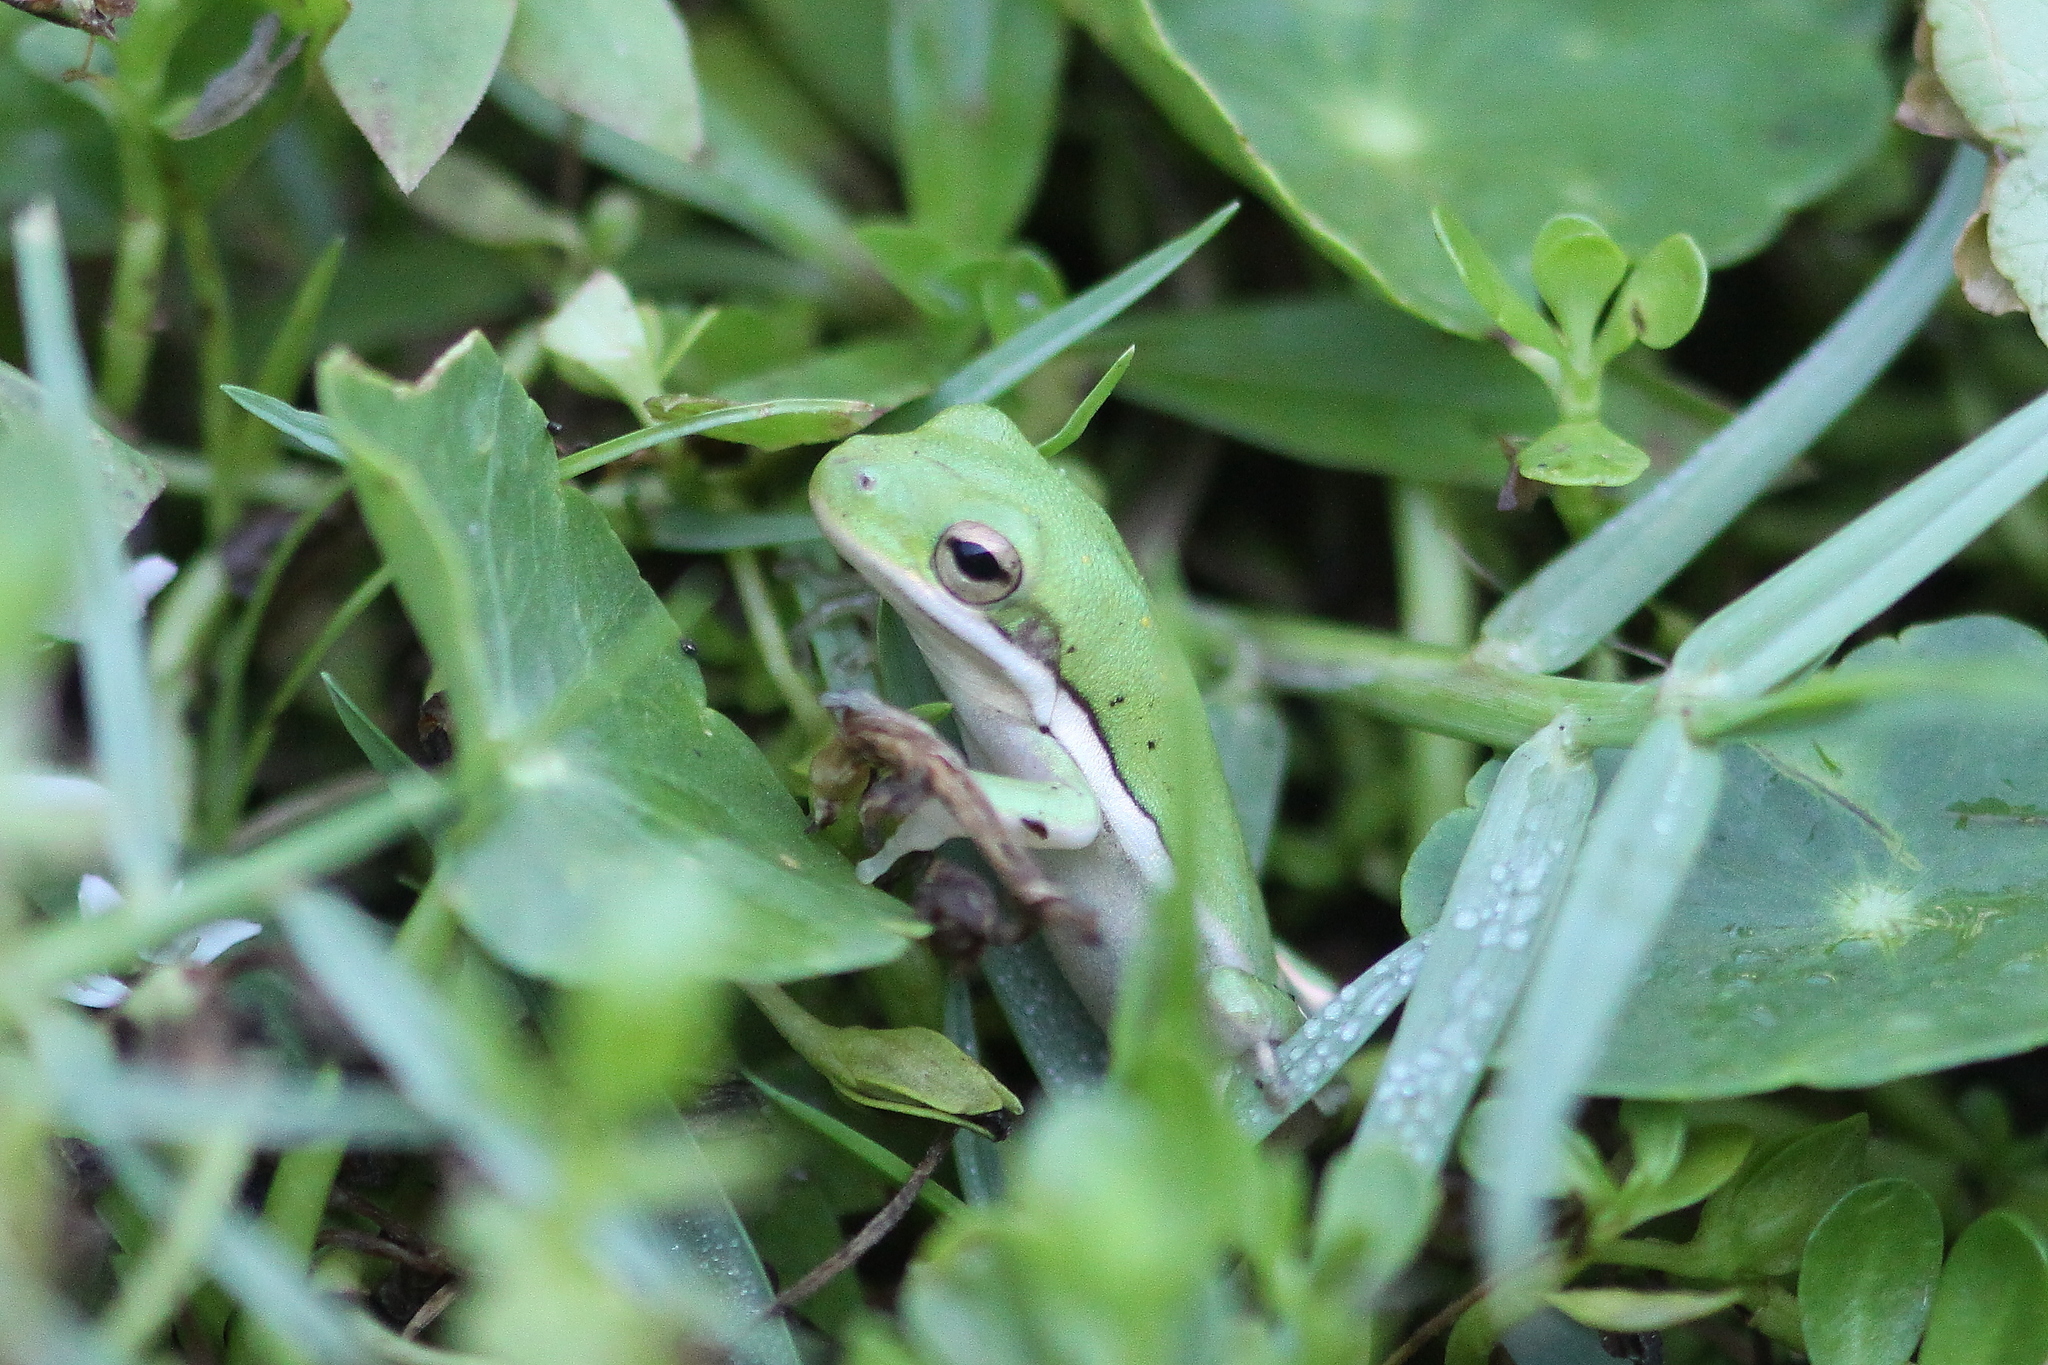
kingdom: Animalia
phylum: Chordata
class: Amphibia
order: Anura
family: Hylidae
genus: Dryophytes
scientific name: Dryophytes cinereus
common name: Green treefrog
